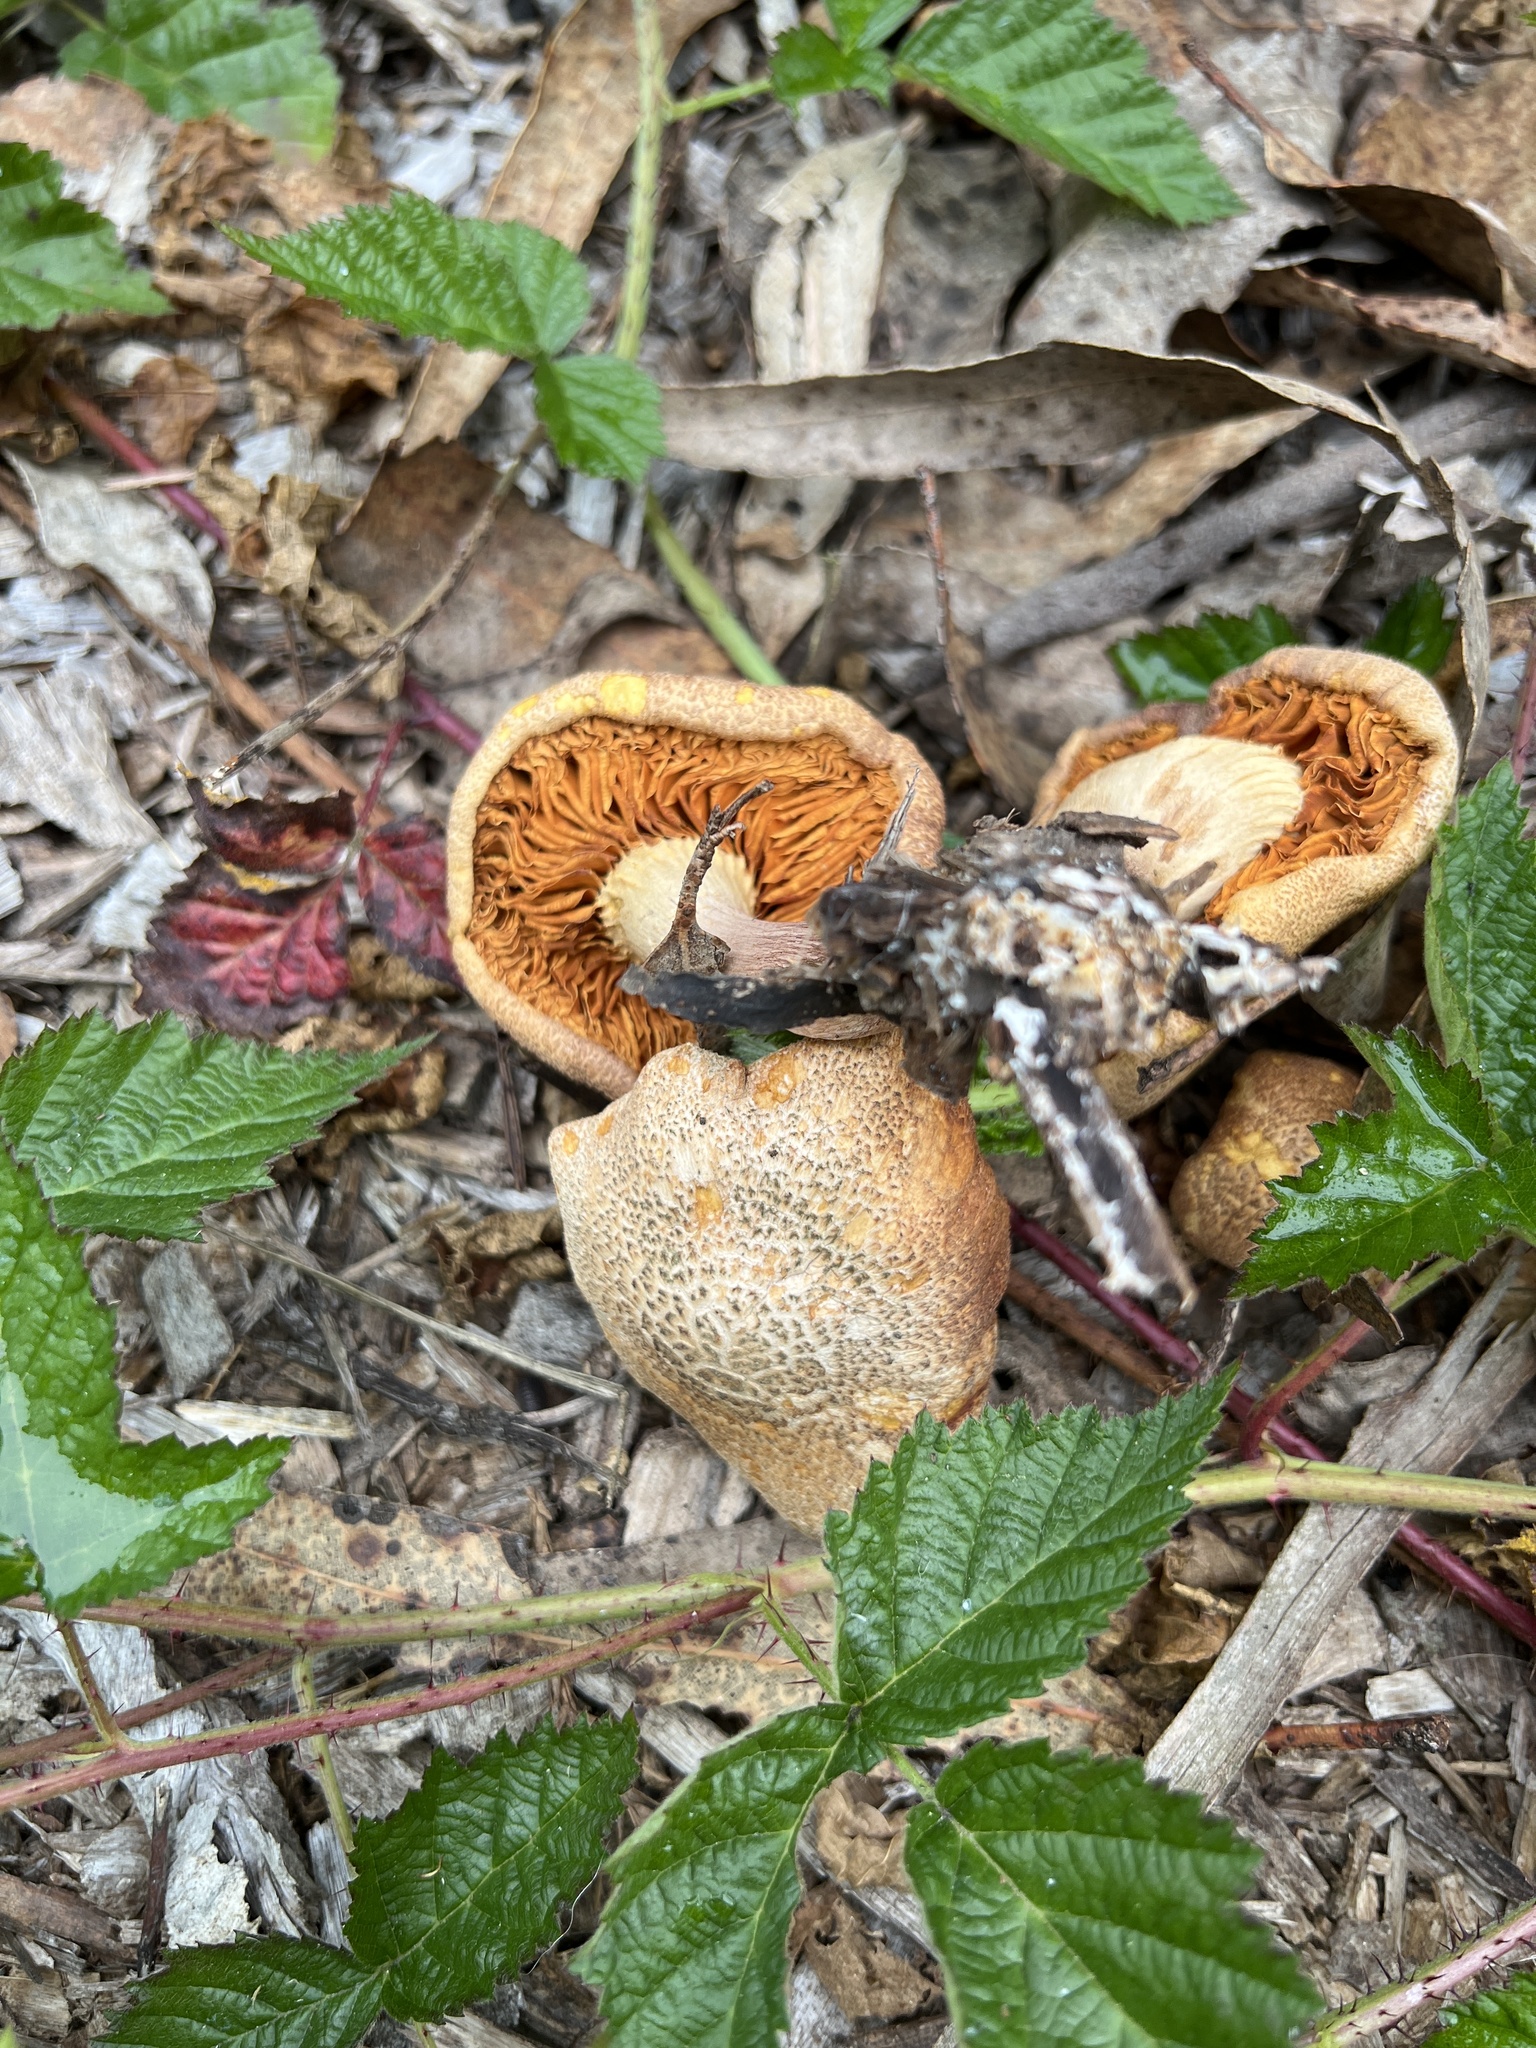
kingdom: Fungi
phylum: Basidiomycota
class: Agaricomycetes
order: Agaricales
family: Hymenogastraceae
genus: Gymnopilus
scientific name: Gymnopilus luteofolius
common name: Yellow-gilled gymnopilus
